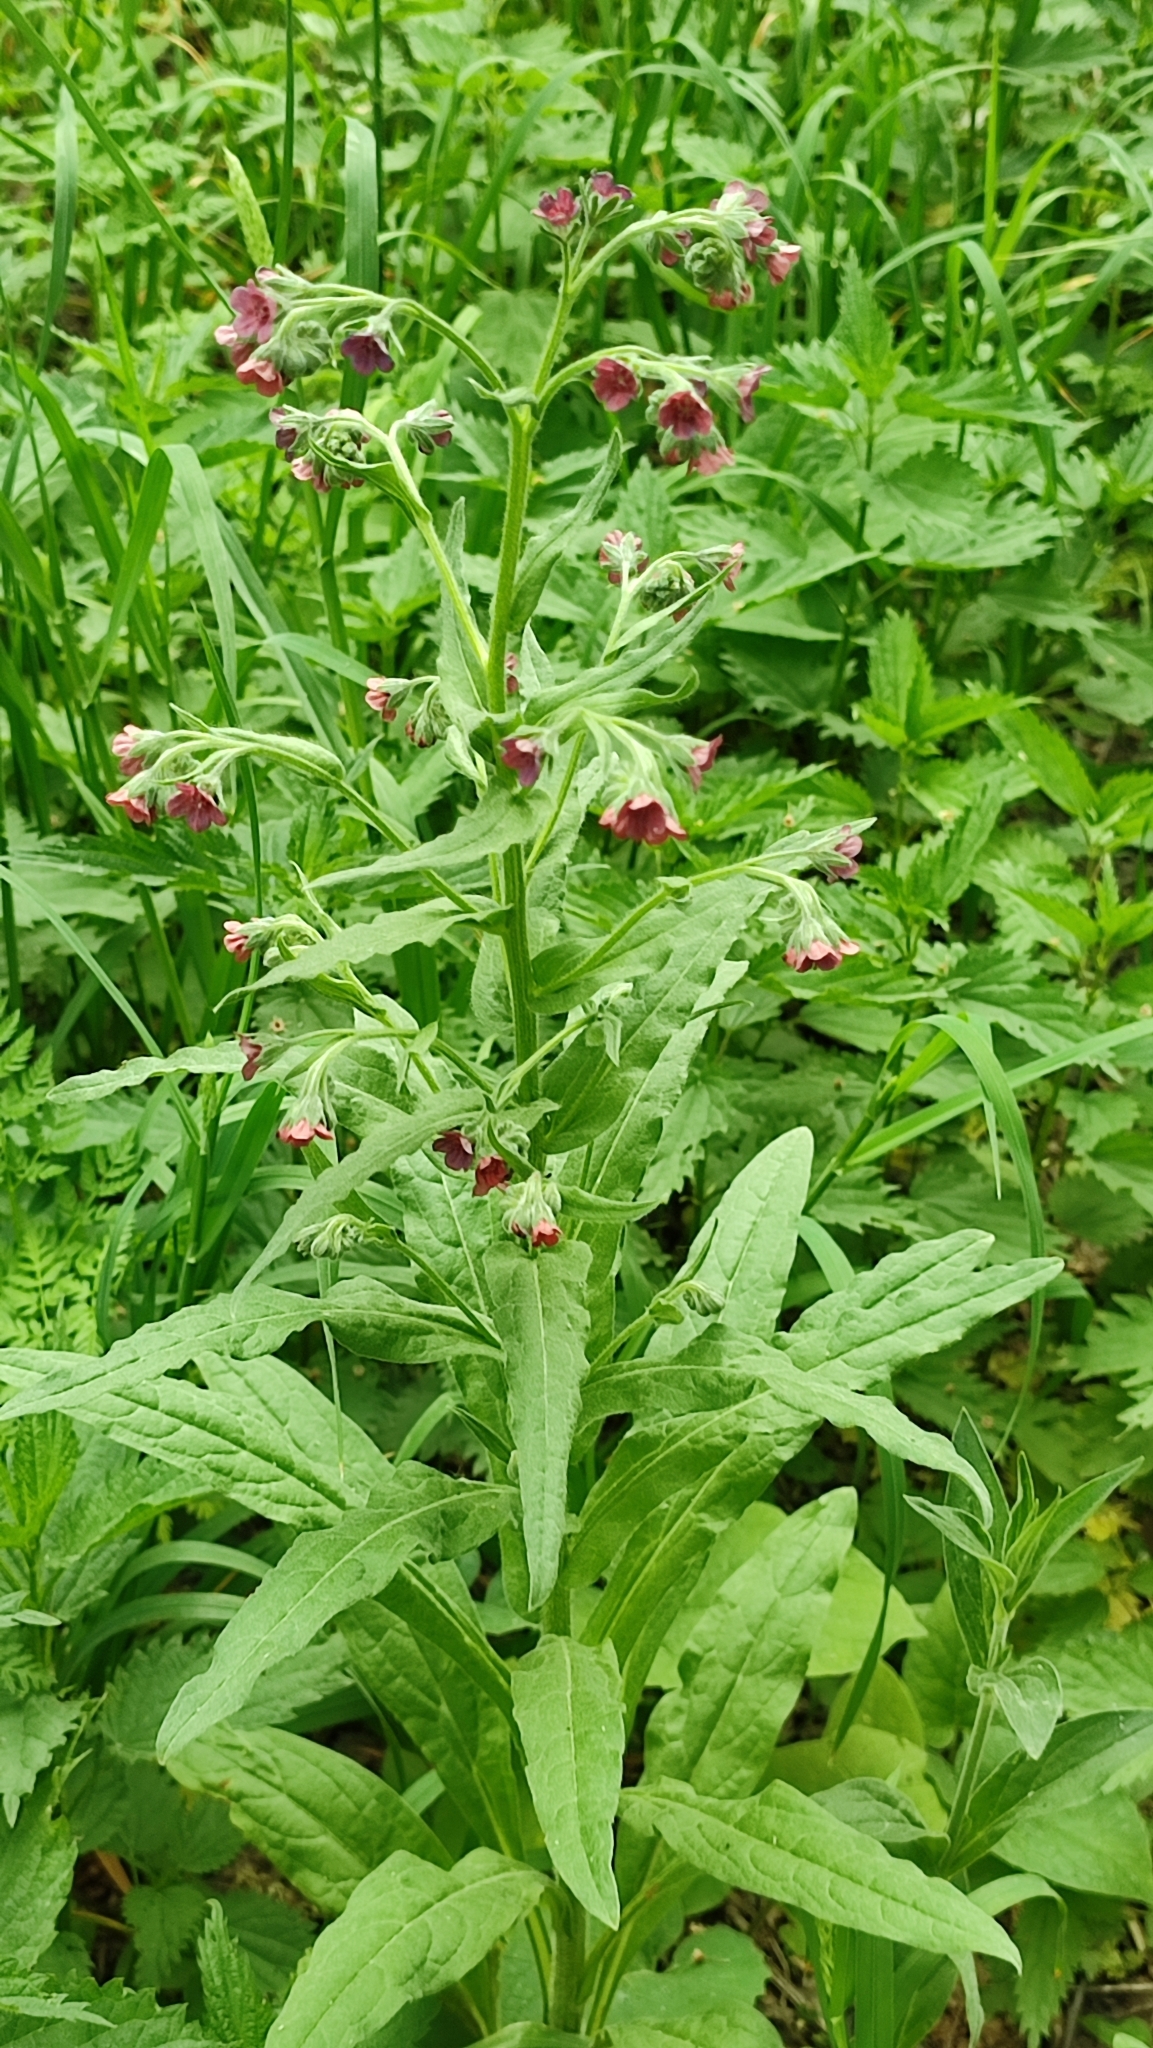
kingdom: Plantae
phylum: Tracheophyta
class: Magnoliopsida
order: Boraginales
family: Boraginaceae
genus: Cynoglossum
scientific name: Cynoglossum officinale
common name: Hound's-tongue
